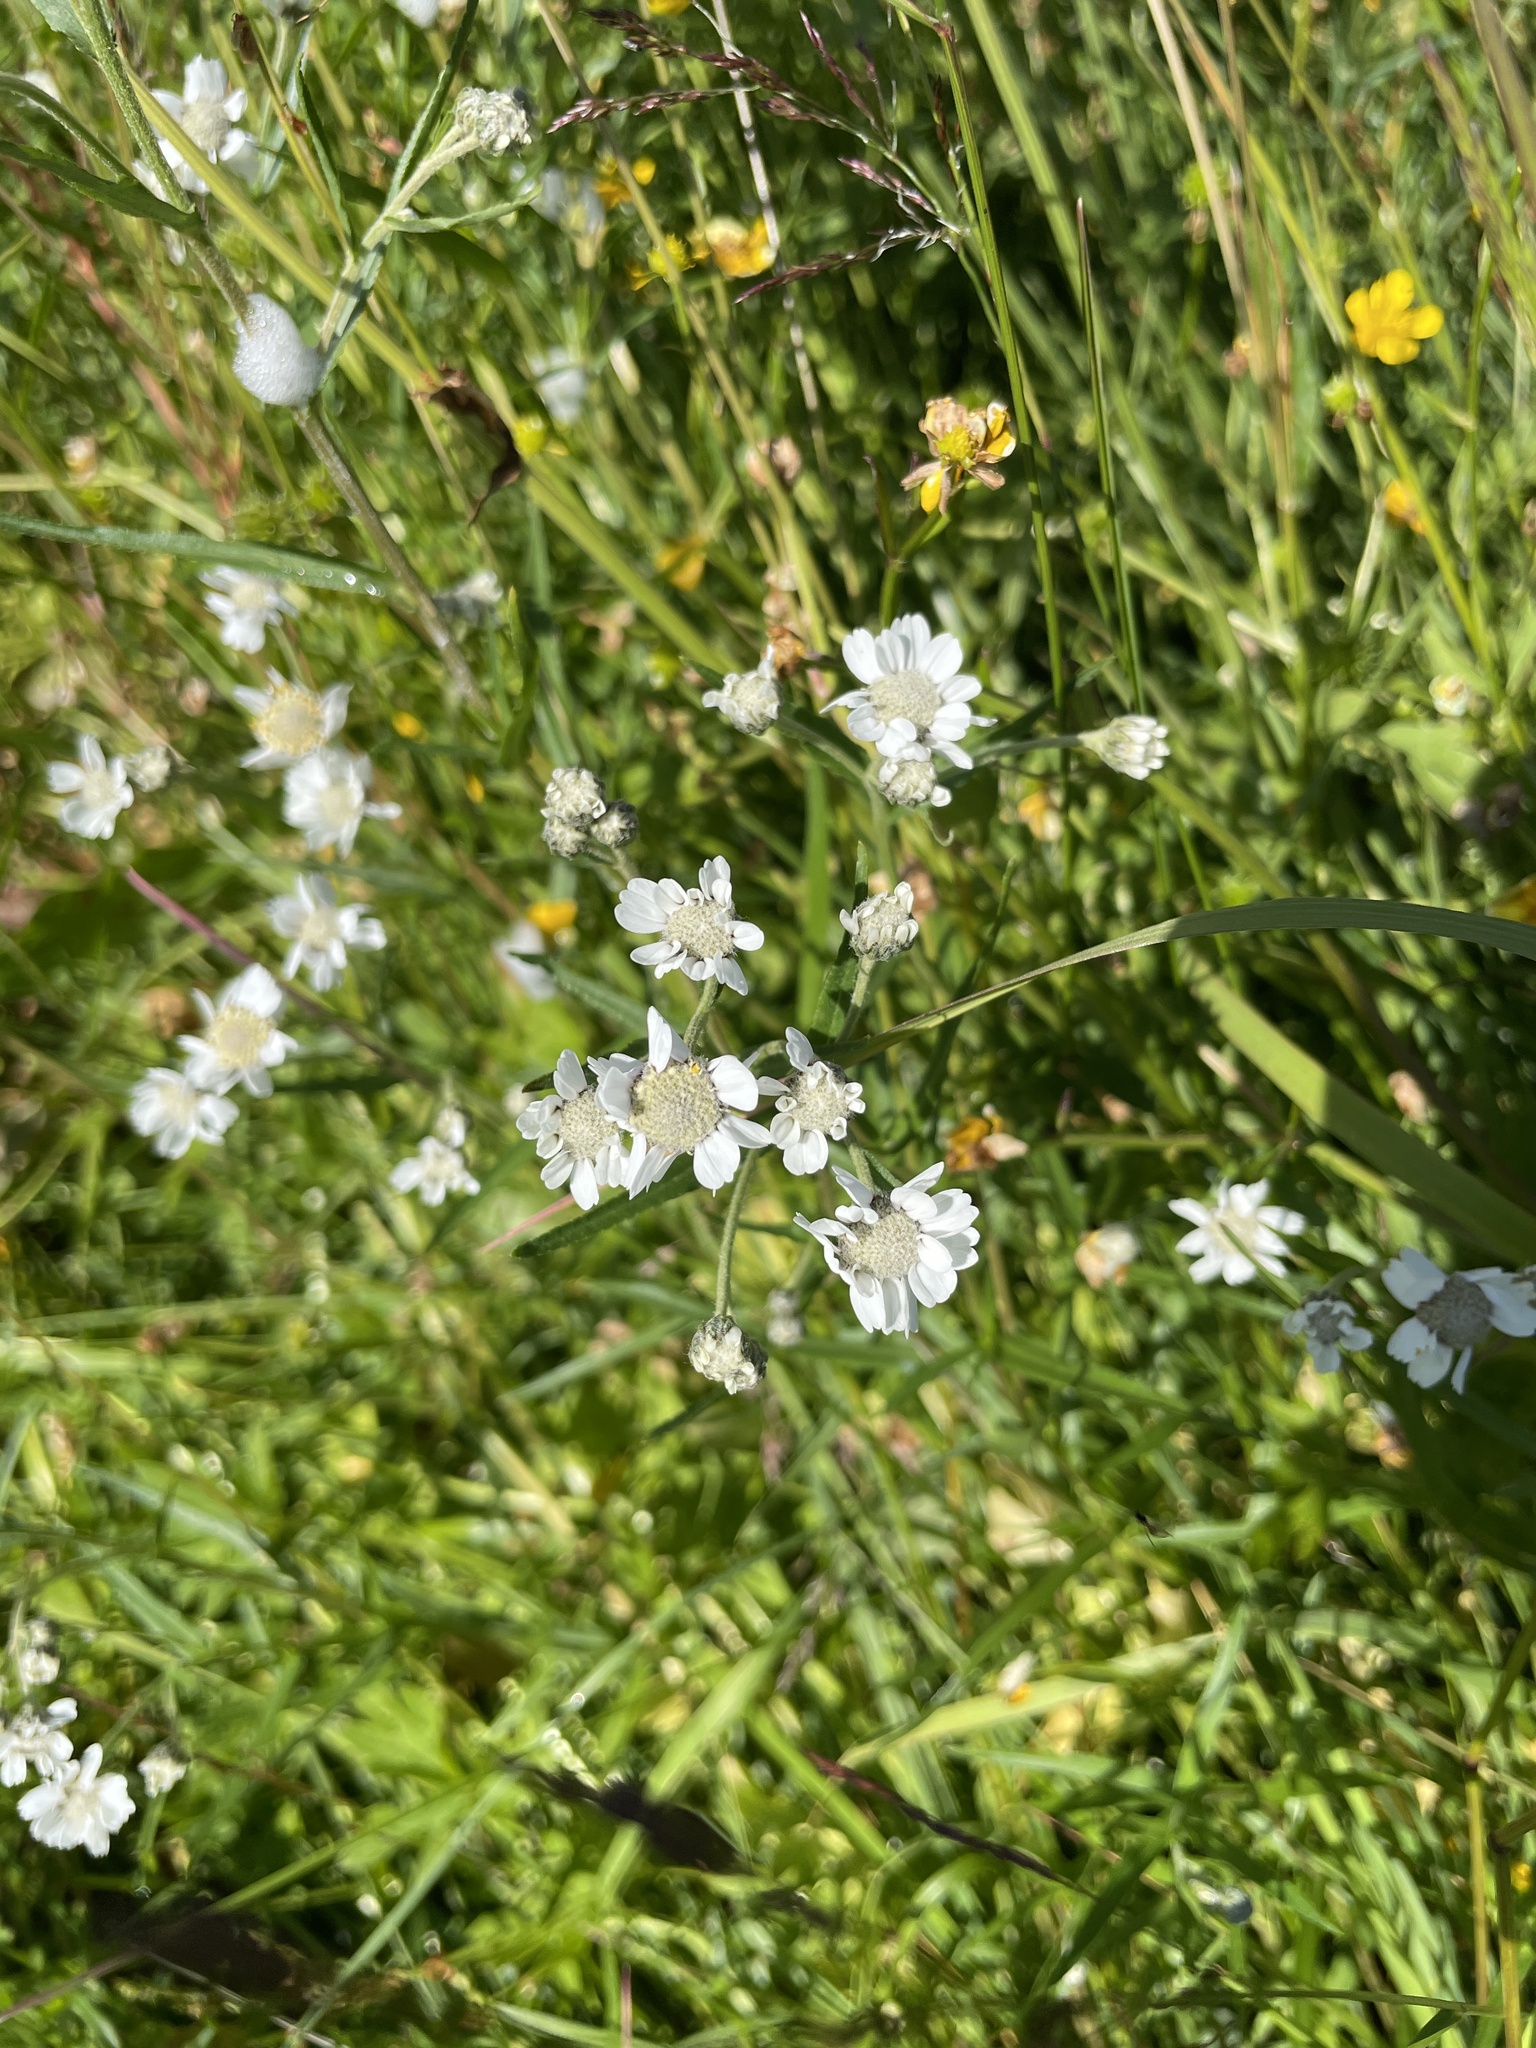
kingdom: Plantae
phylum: Tracheophyta
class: Magnoliopsida
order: Asterales
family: Asteraceae
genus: Achillea
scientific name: Achillea ptarmica
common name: Sneezeweed
